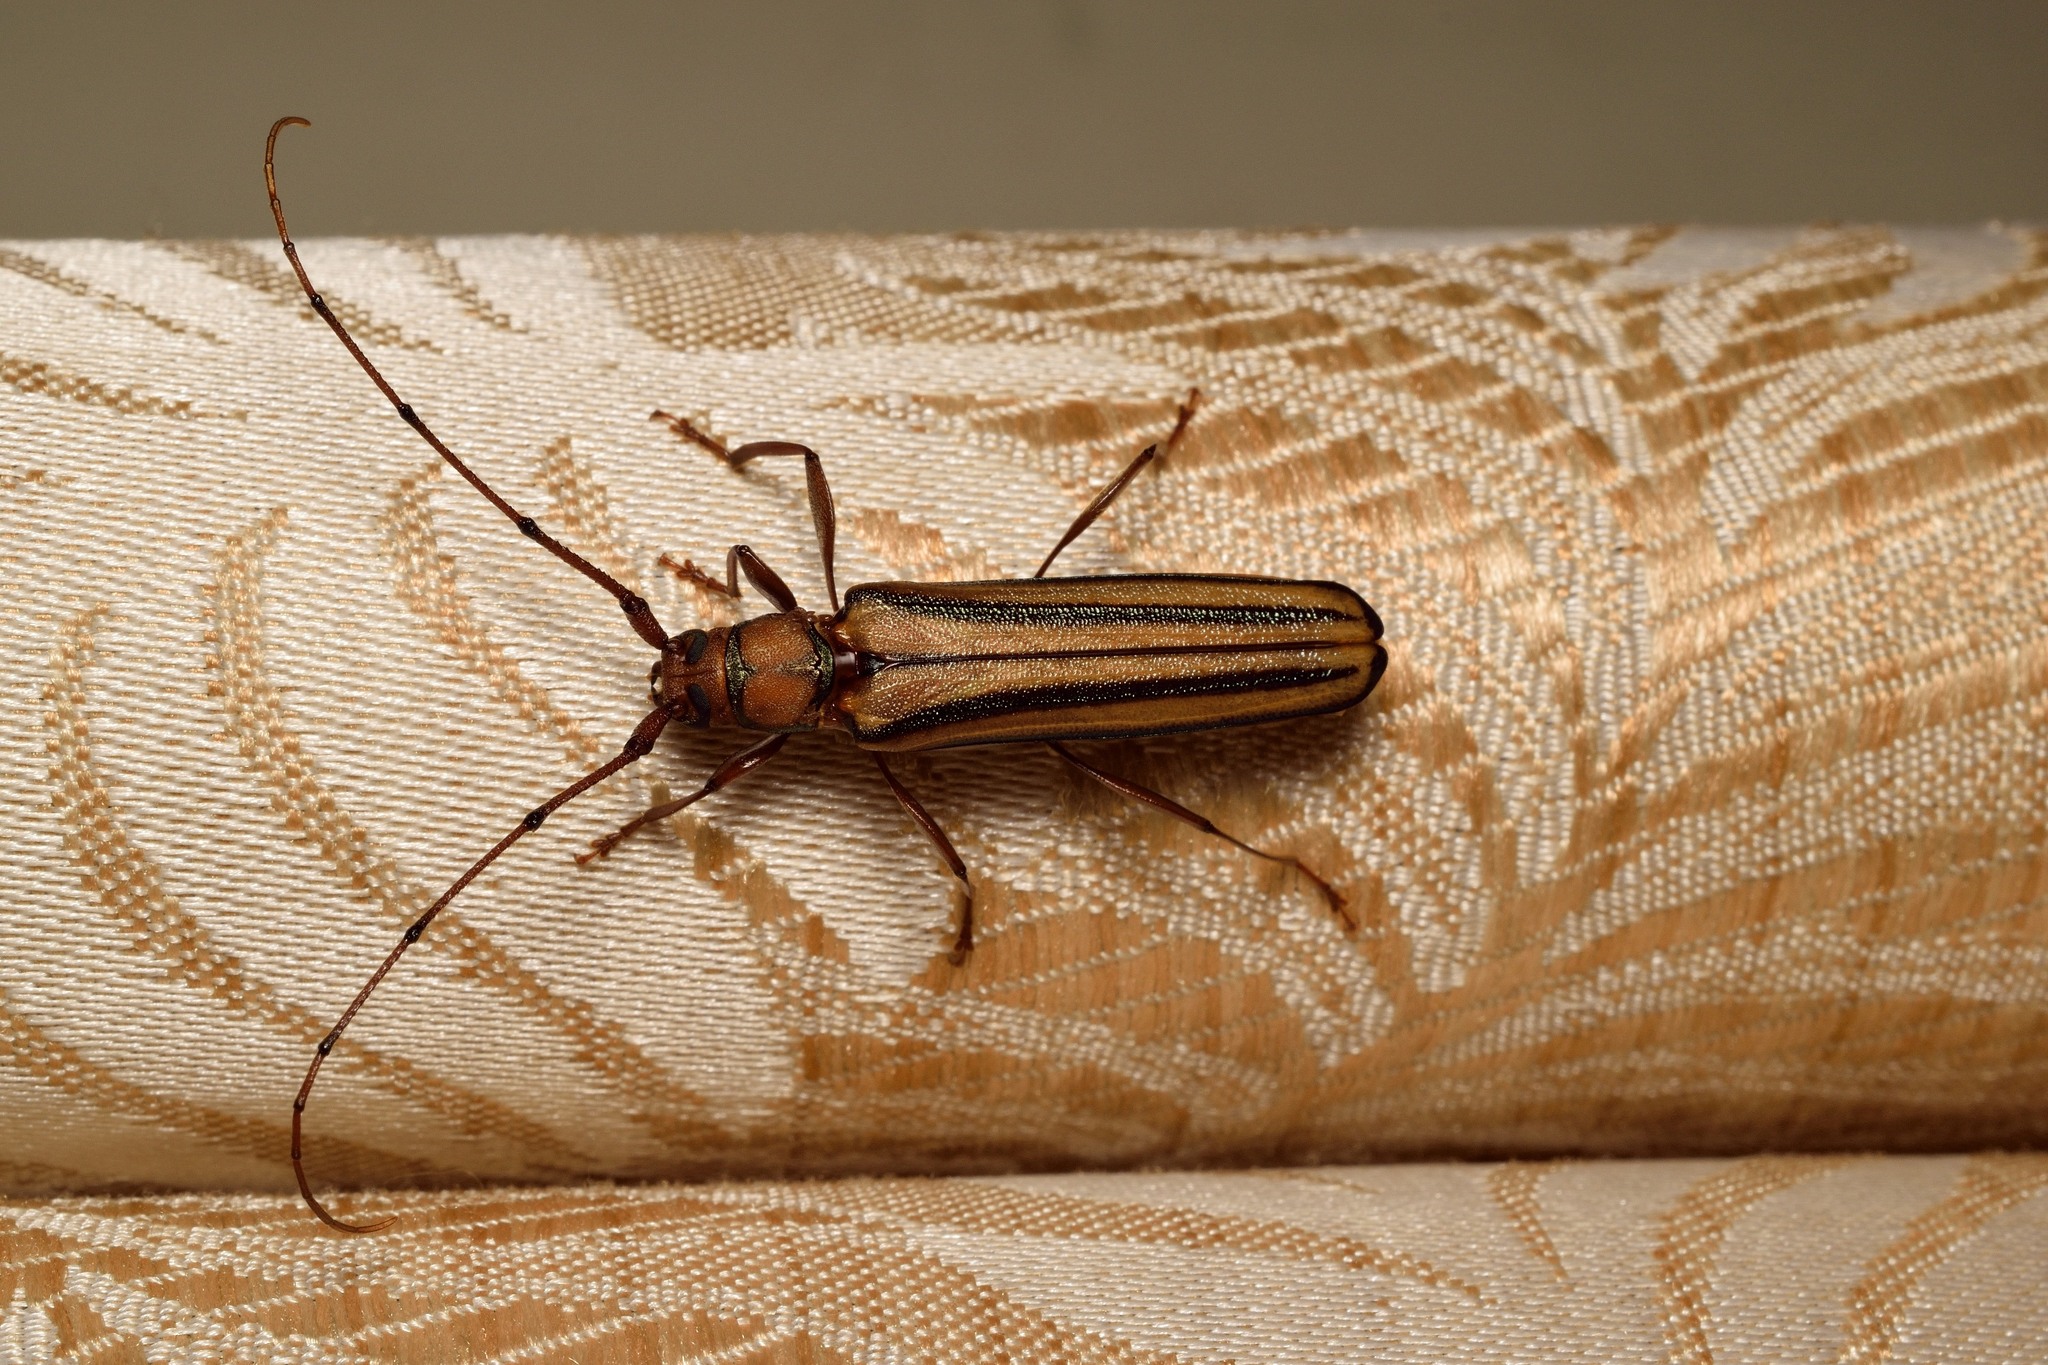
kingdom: Animalia
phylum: Arthropoda
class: Insecta
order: Coleoptera
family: Cerambycidae
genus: Xystrocera
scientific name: Xystrocera globosa
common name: Peach-tree longhorn
